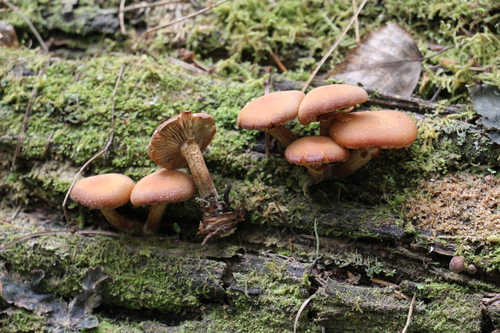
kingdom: Fungi
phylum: Basidiomycota
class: Agaricomycetes
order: Agaricales
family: Strophariaceae
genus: Kuehneromyces
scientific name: Kuehneromyces mutabilis
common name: Sheathed woodtuft
